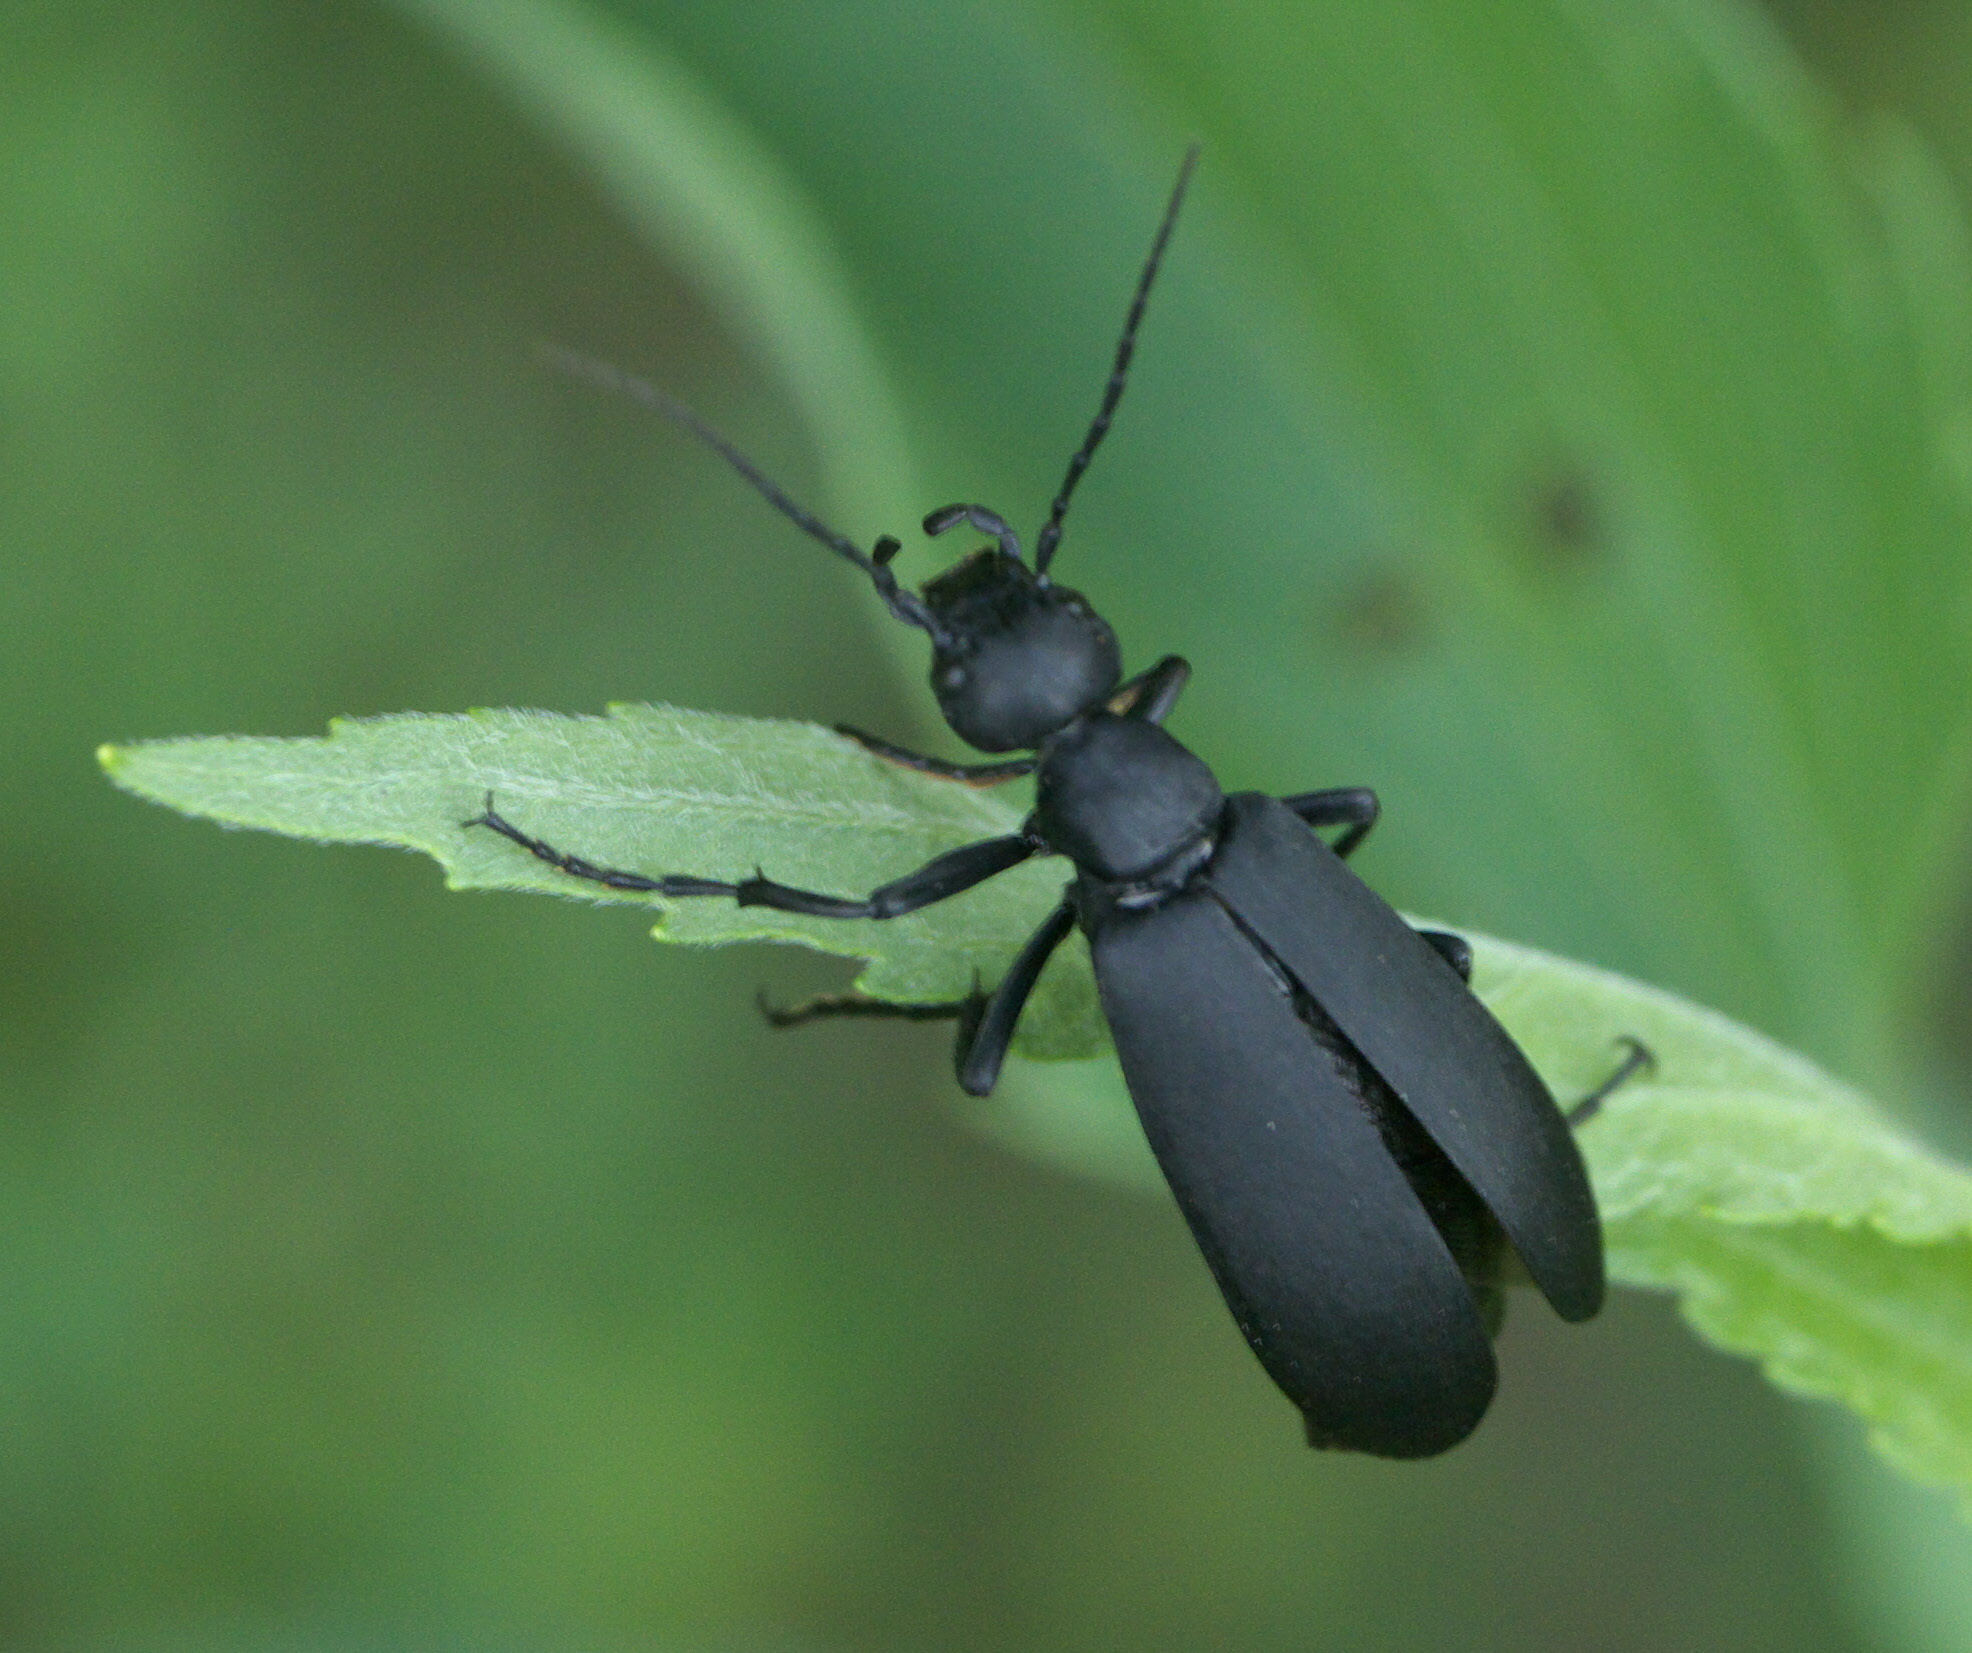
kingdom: Animalia
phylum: Arthropoda
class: Insecta
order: Coleoptera
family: Meloidae
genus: Epicauta
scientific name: Epicauta funebris
